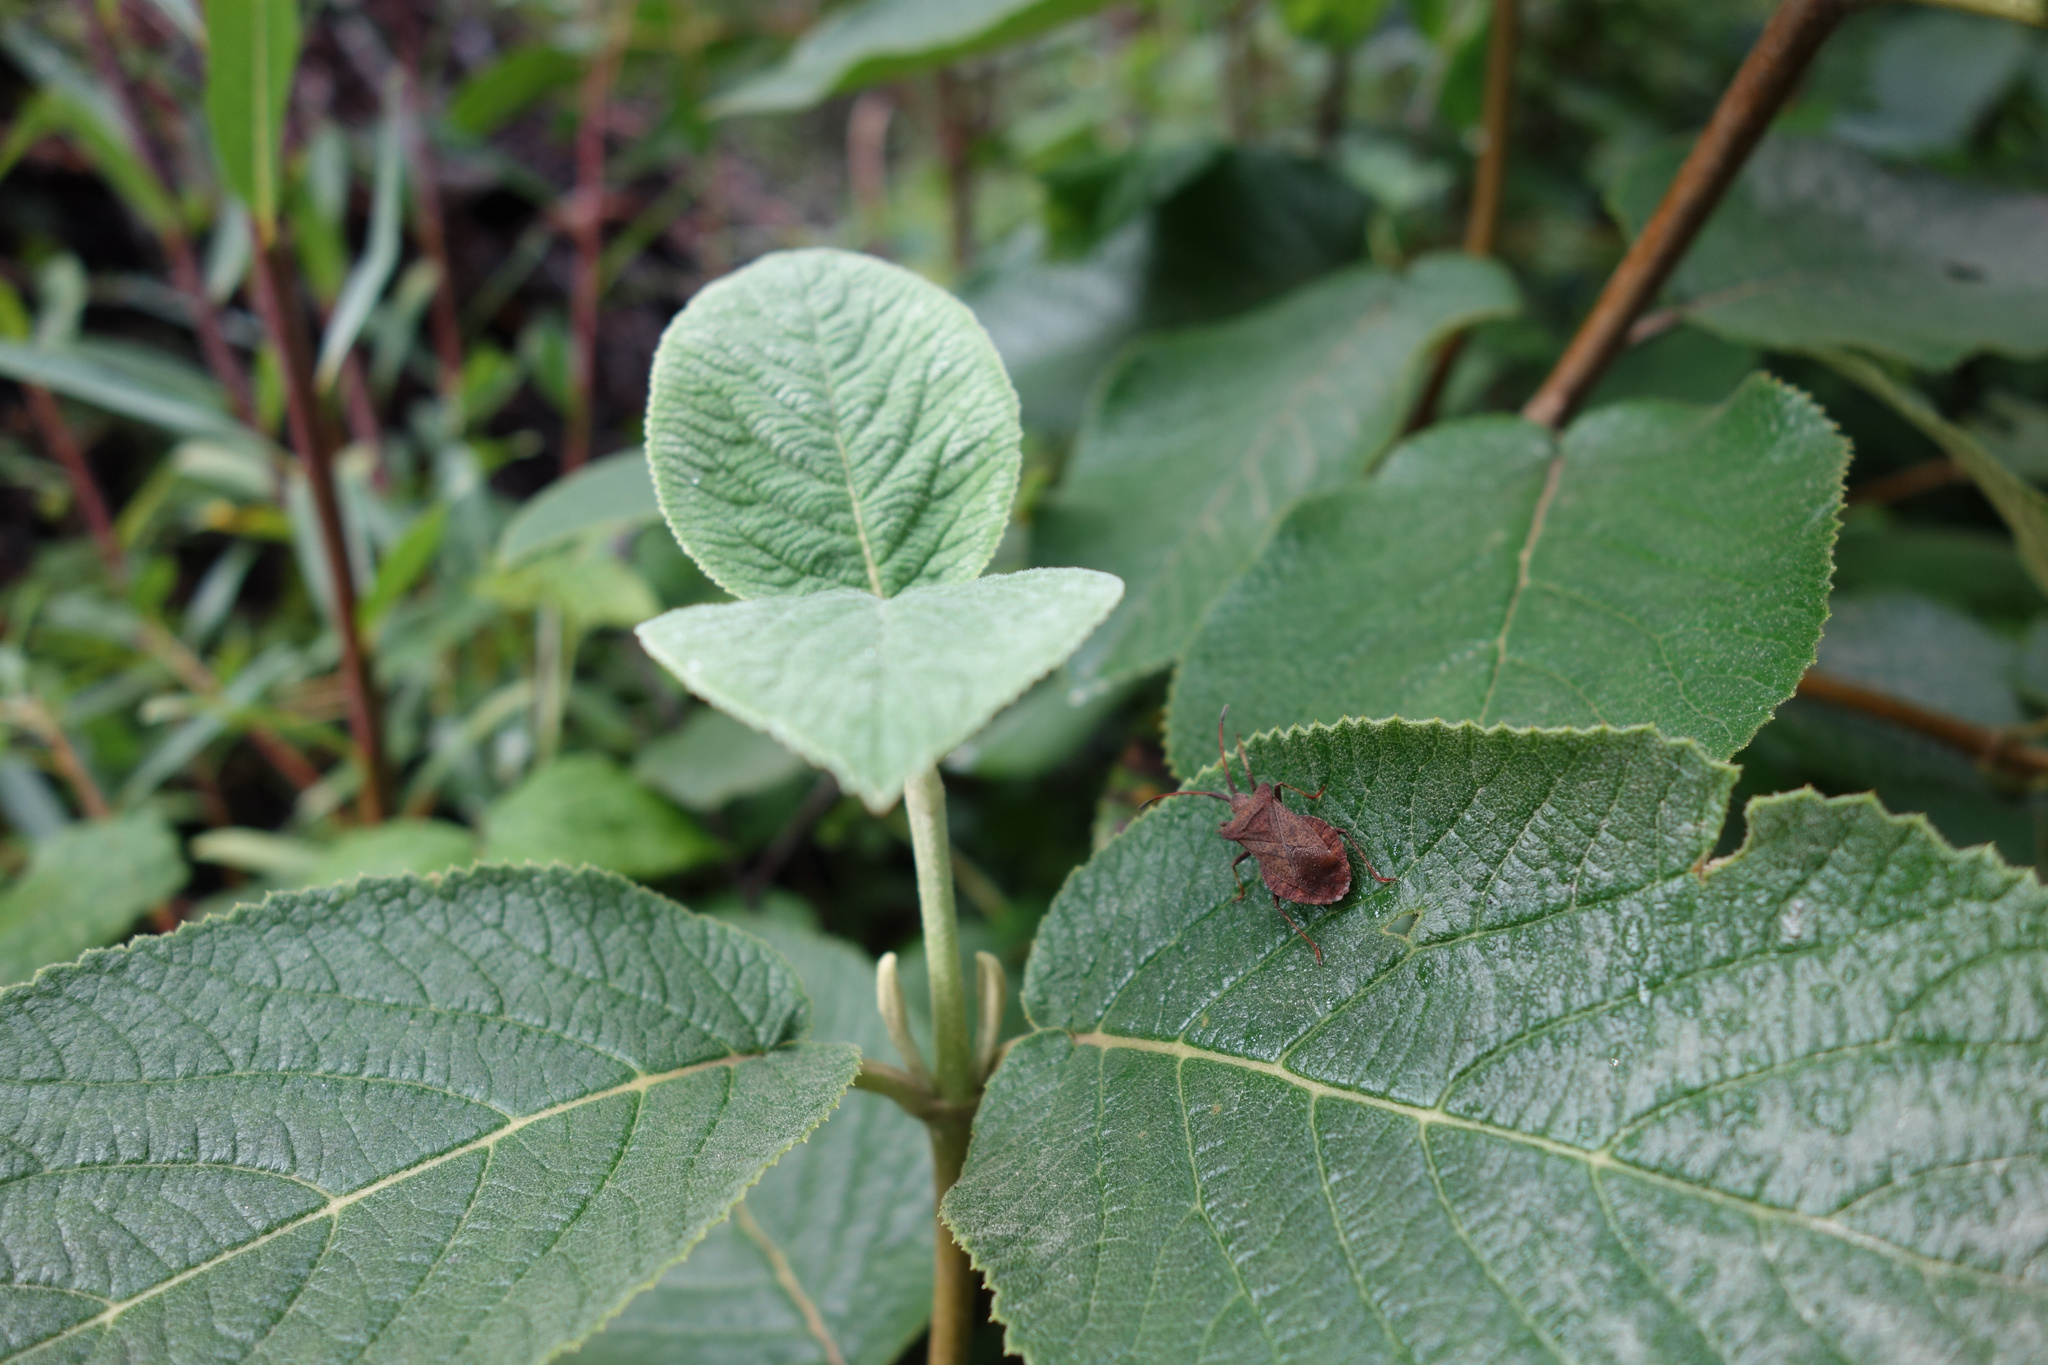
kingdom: Animalia
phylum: Arthropoda
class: Insecta
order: Hemiptera
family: Coreidae
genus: Coreus
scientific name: Coreus marginatus
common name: Dock bug
